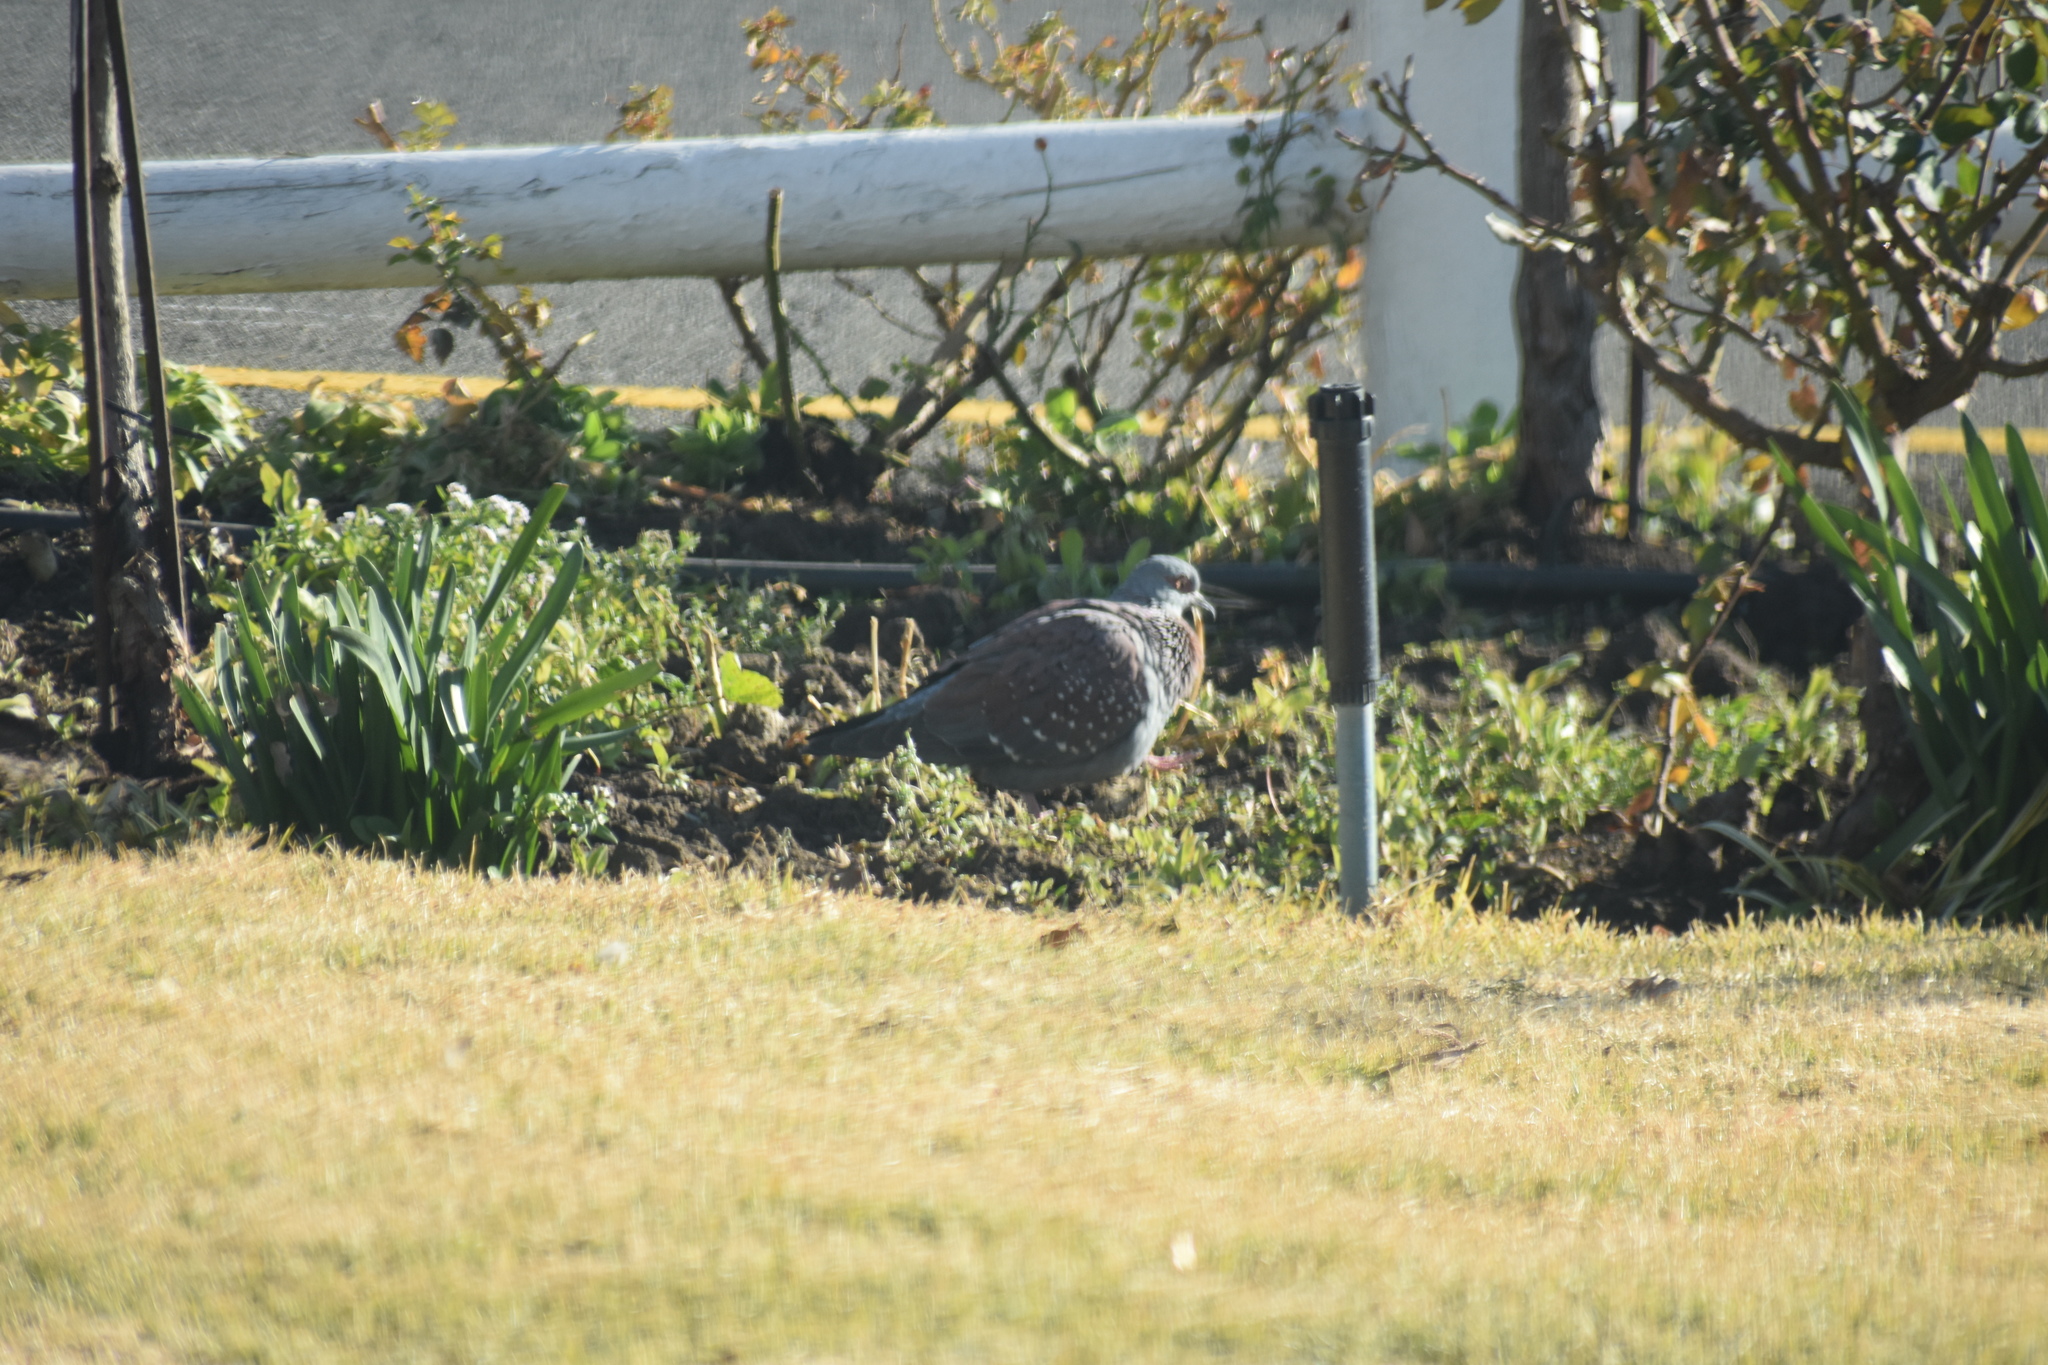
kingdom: Animalia
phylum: Chordata
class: Aves
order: Columbiformes
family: Columbidae
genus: Columba
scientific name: Columba guinea
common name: Speckled pigeon
